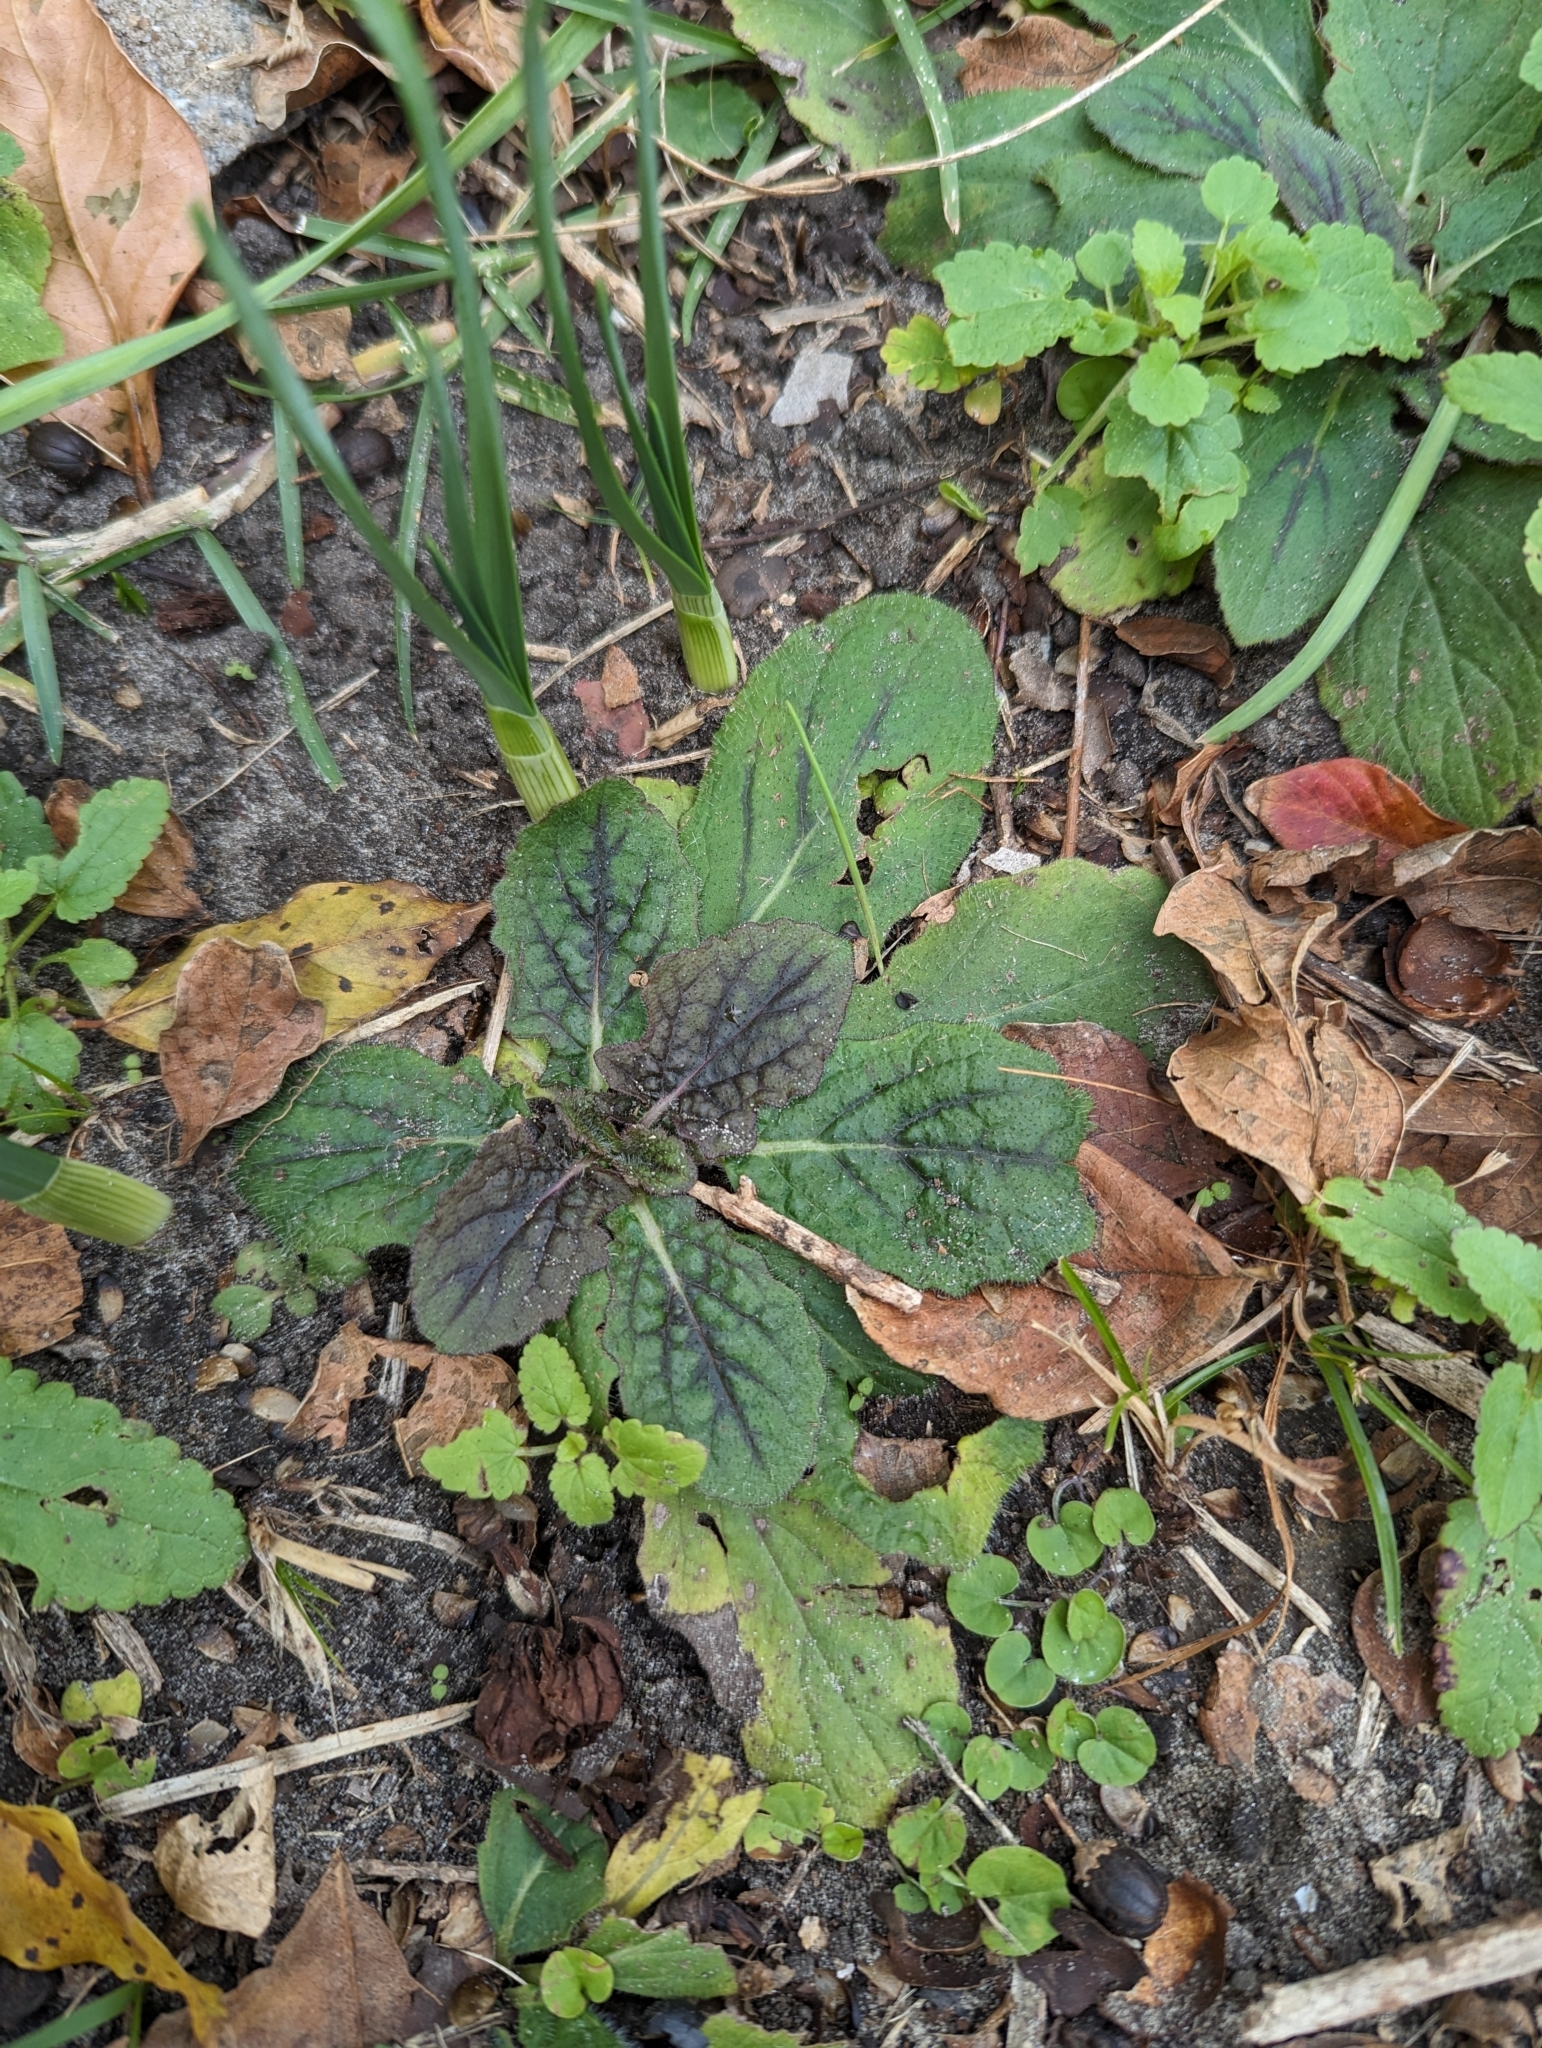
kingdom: Plantae
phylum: Tracheophyta
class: Magnoliopsida
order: Lamiales
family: Lamiaceae
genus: Salvia
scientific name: Salvia lyrata
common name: Cancerweed
